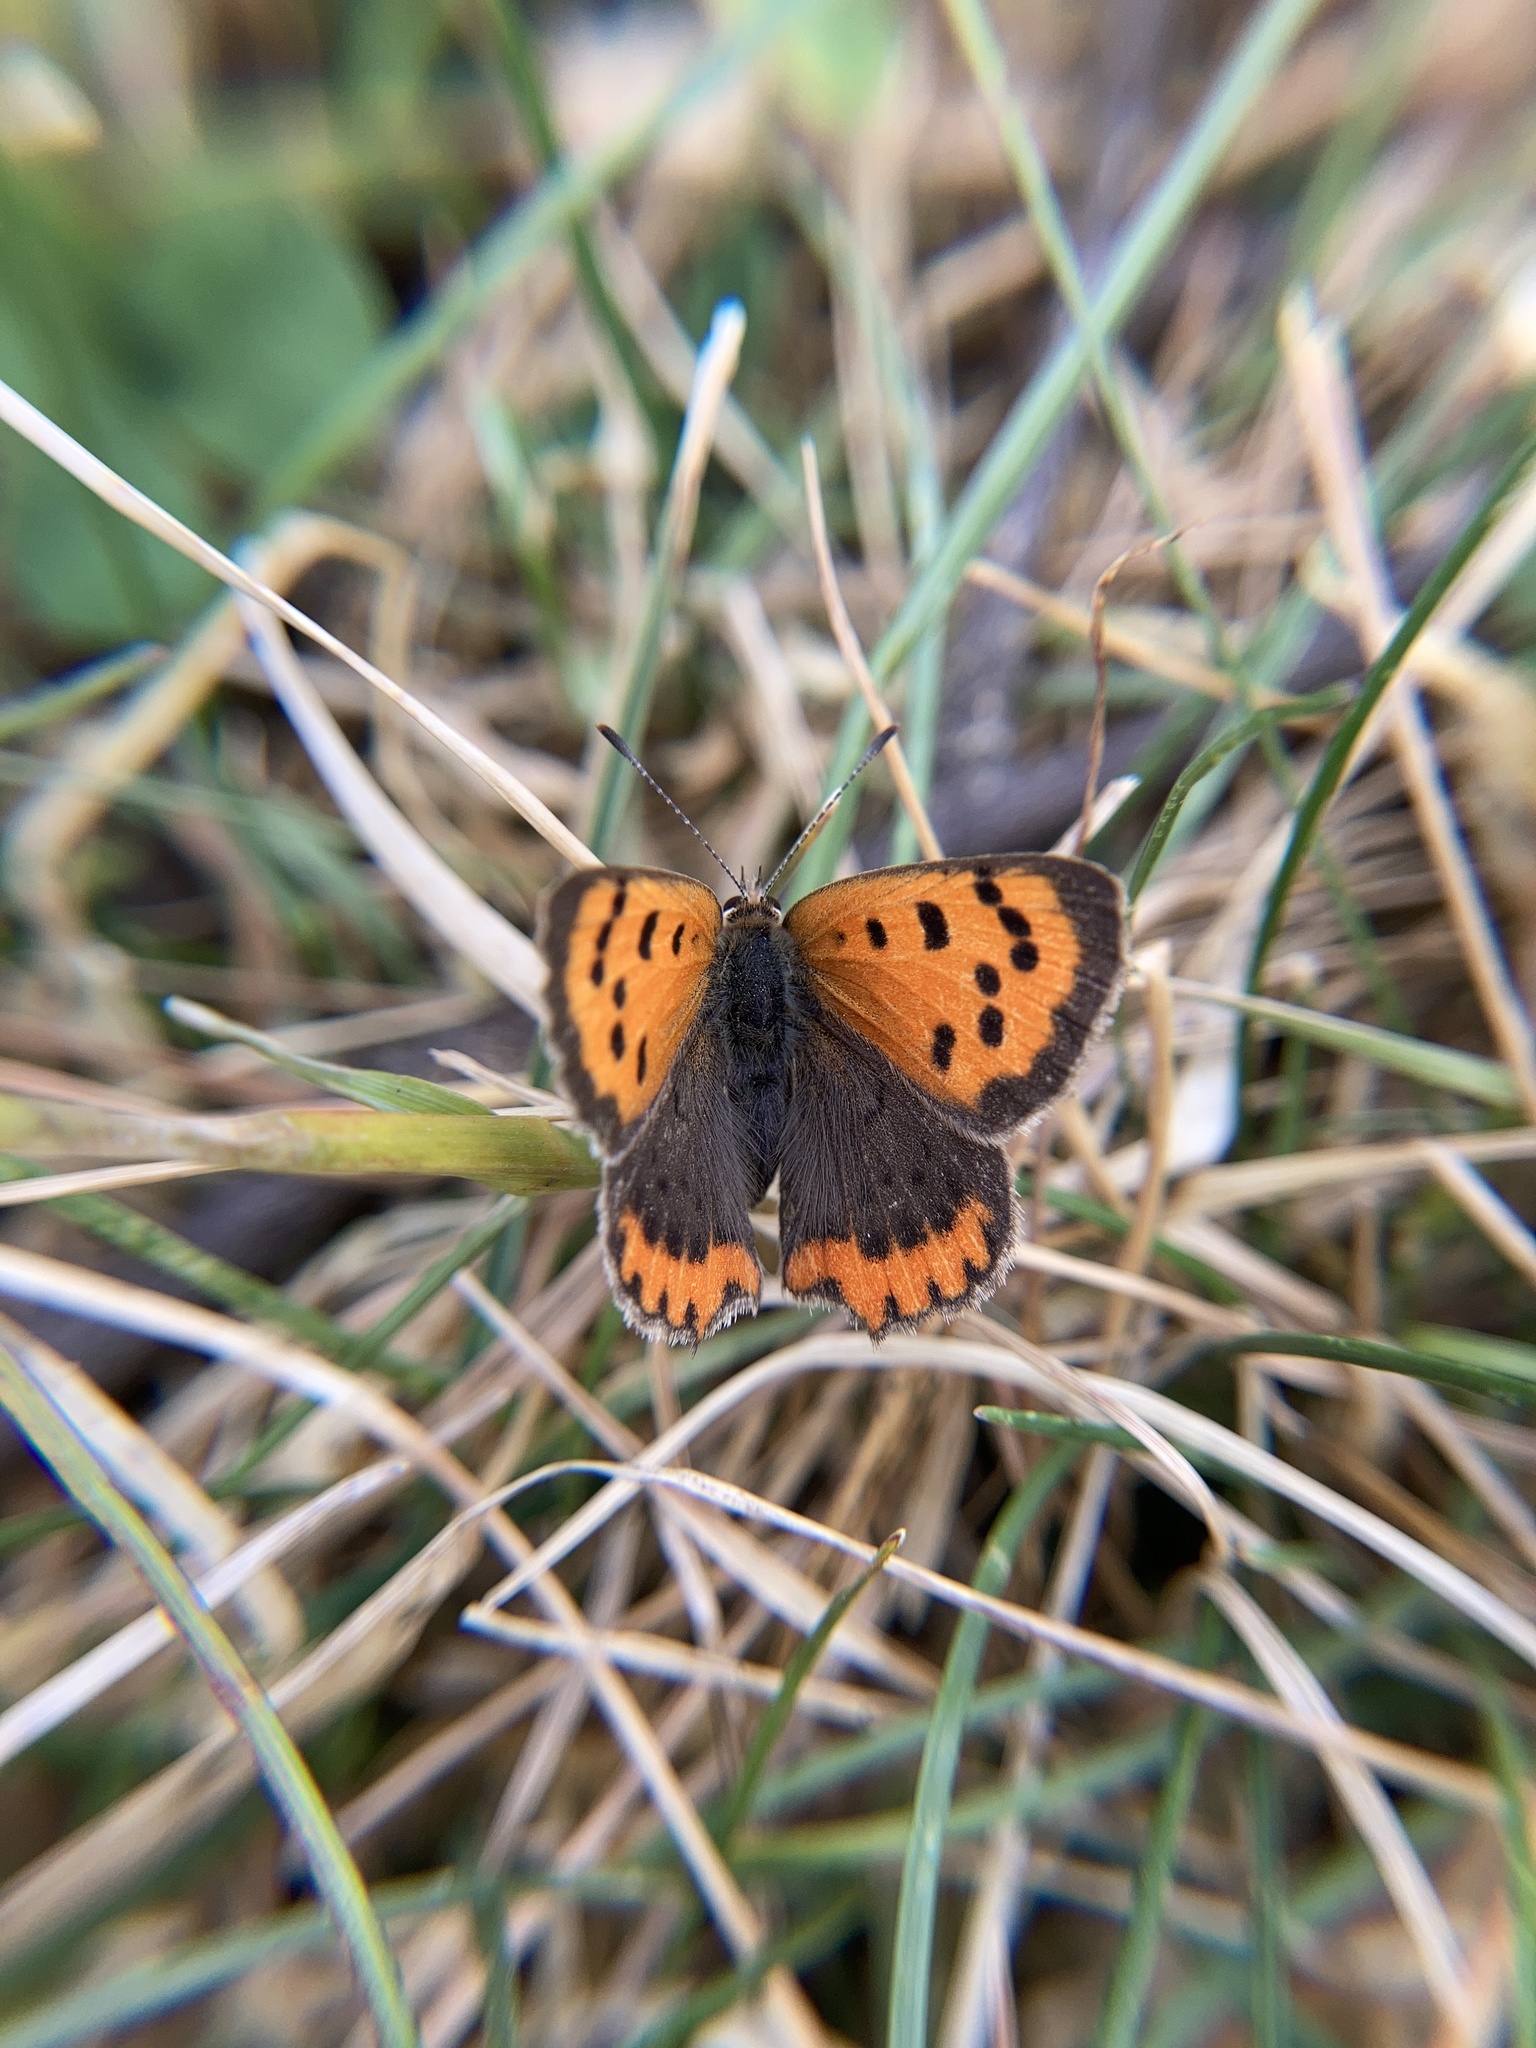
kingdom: Animalia
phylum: Arthropoda
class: Insecta
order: Lepidoptera
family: Lycaenidae
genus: Lycaena
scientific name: Lycaena phlaeas
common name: Small copper
